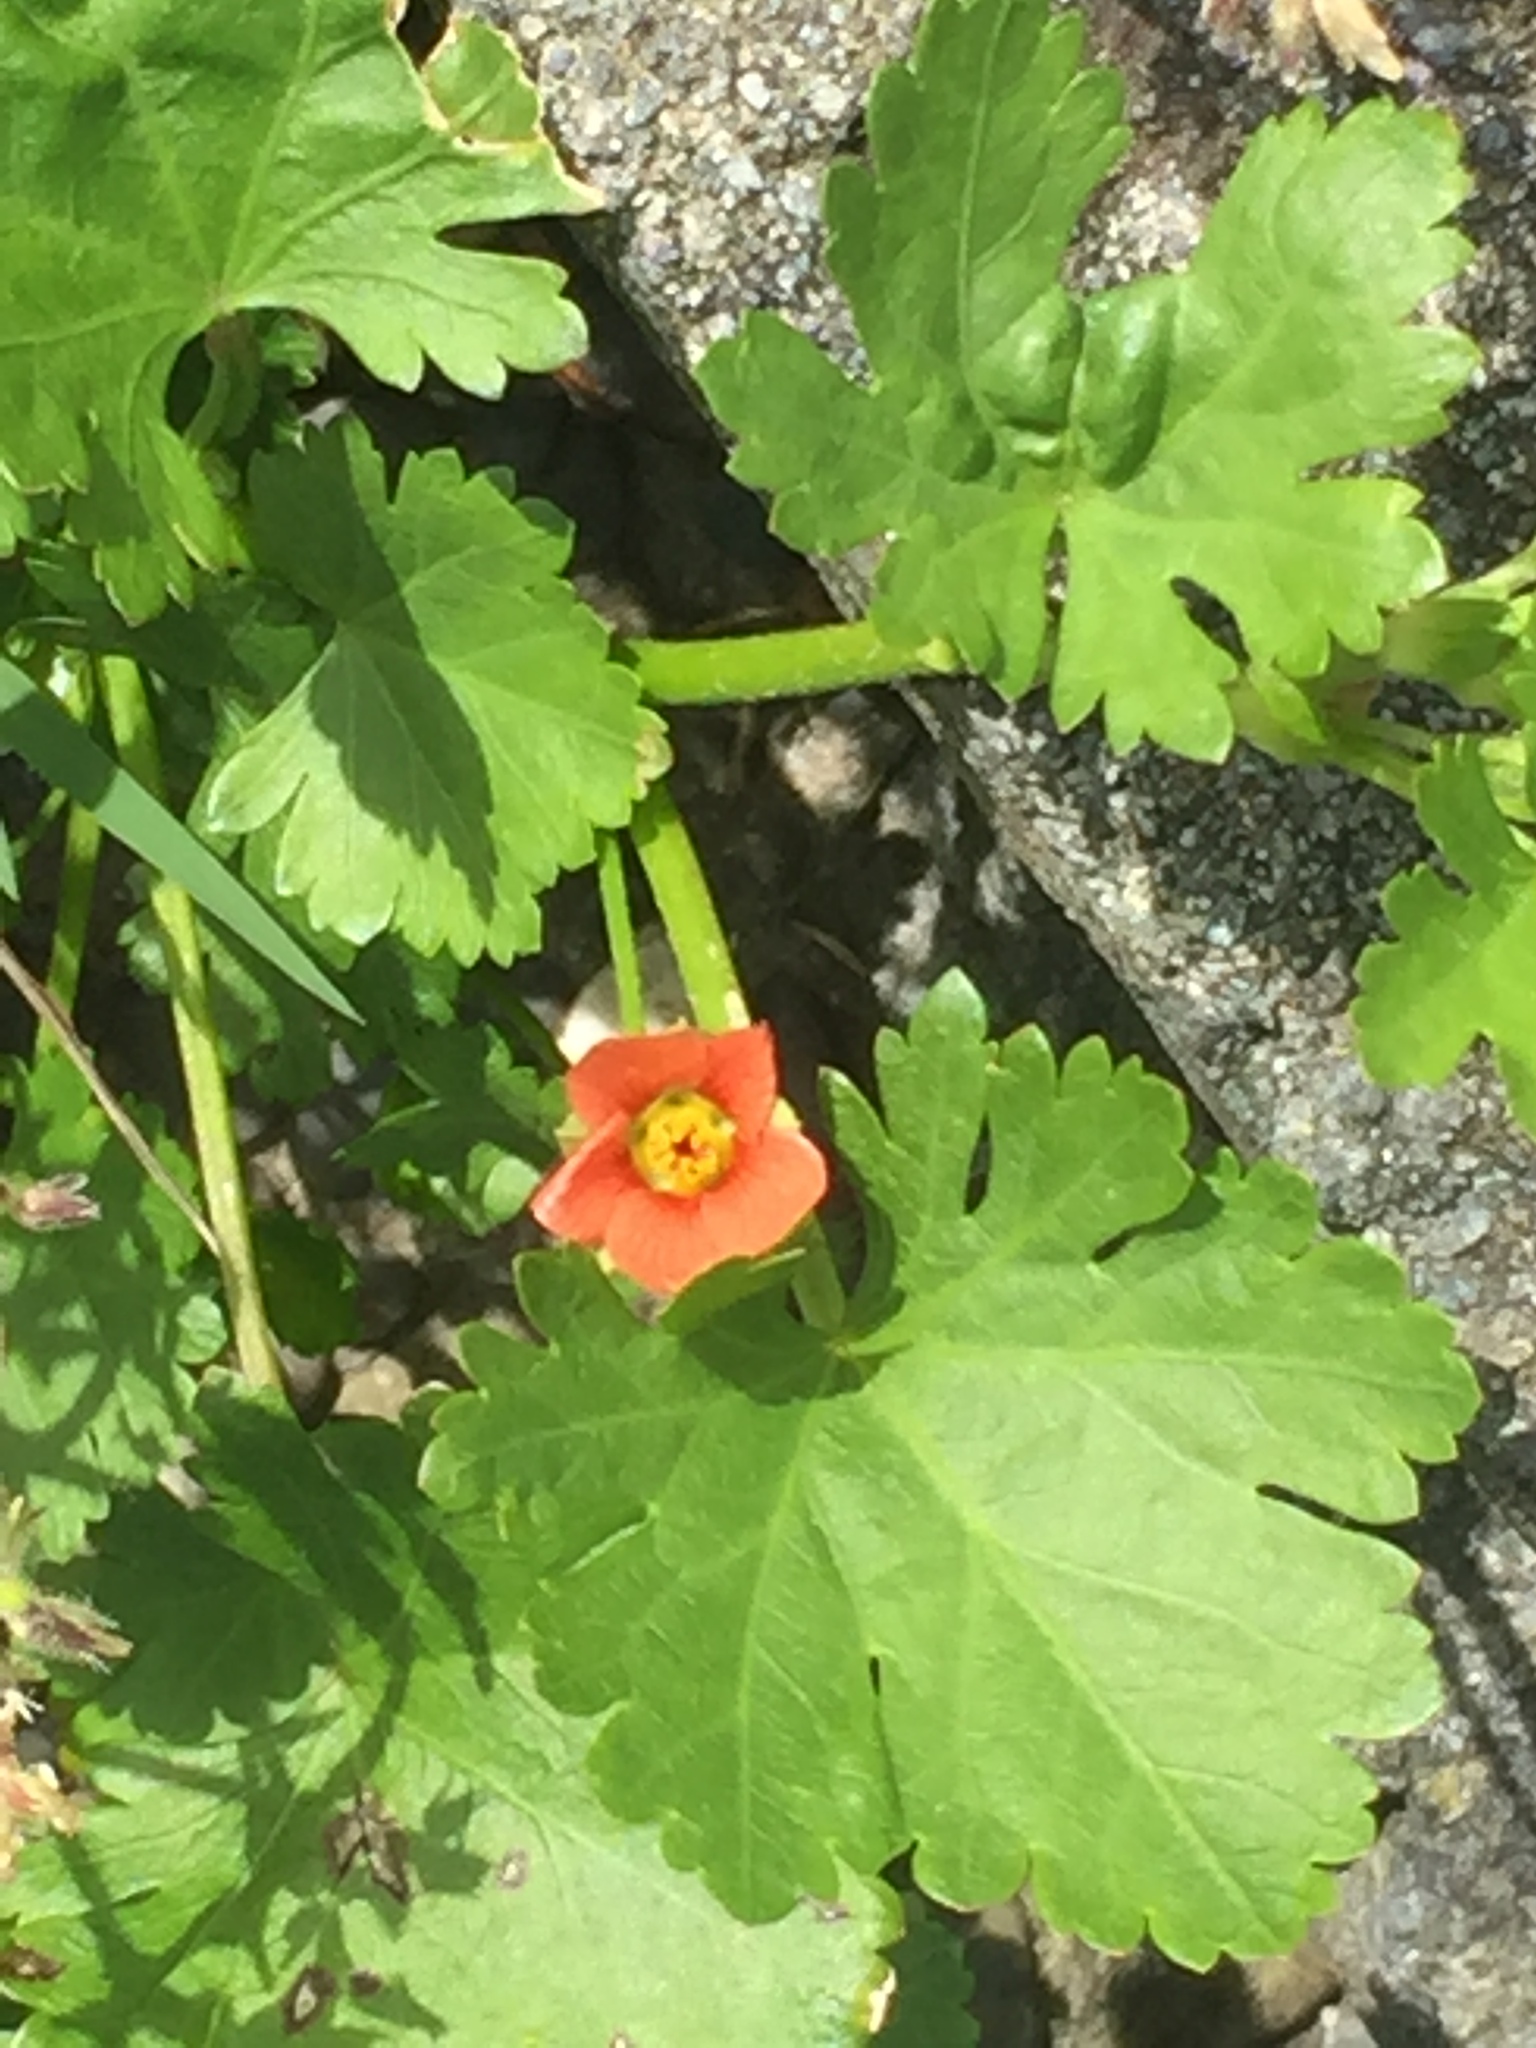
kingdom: Plantae
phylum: Tracheophyta
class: Magnoliopsida
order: Malvales
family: Malvaceae
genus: Modiola
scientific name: Modiola caroliniana
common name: Carolina bristlemallow
